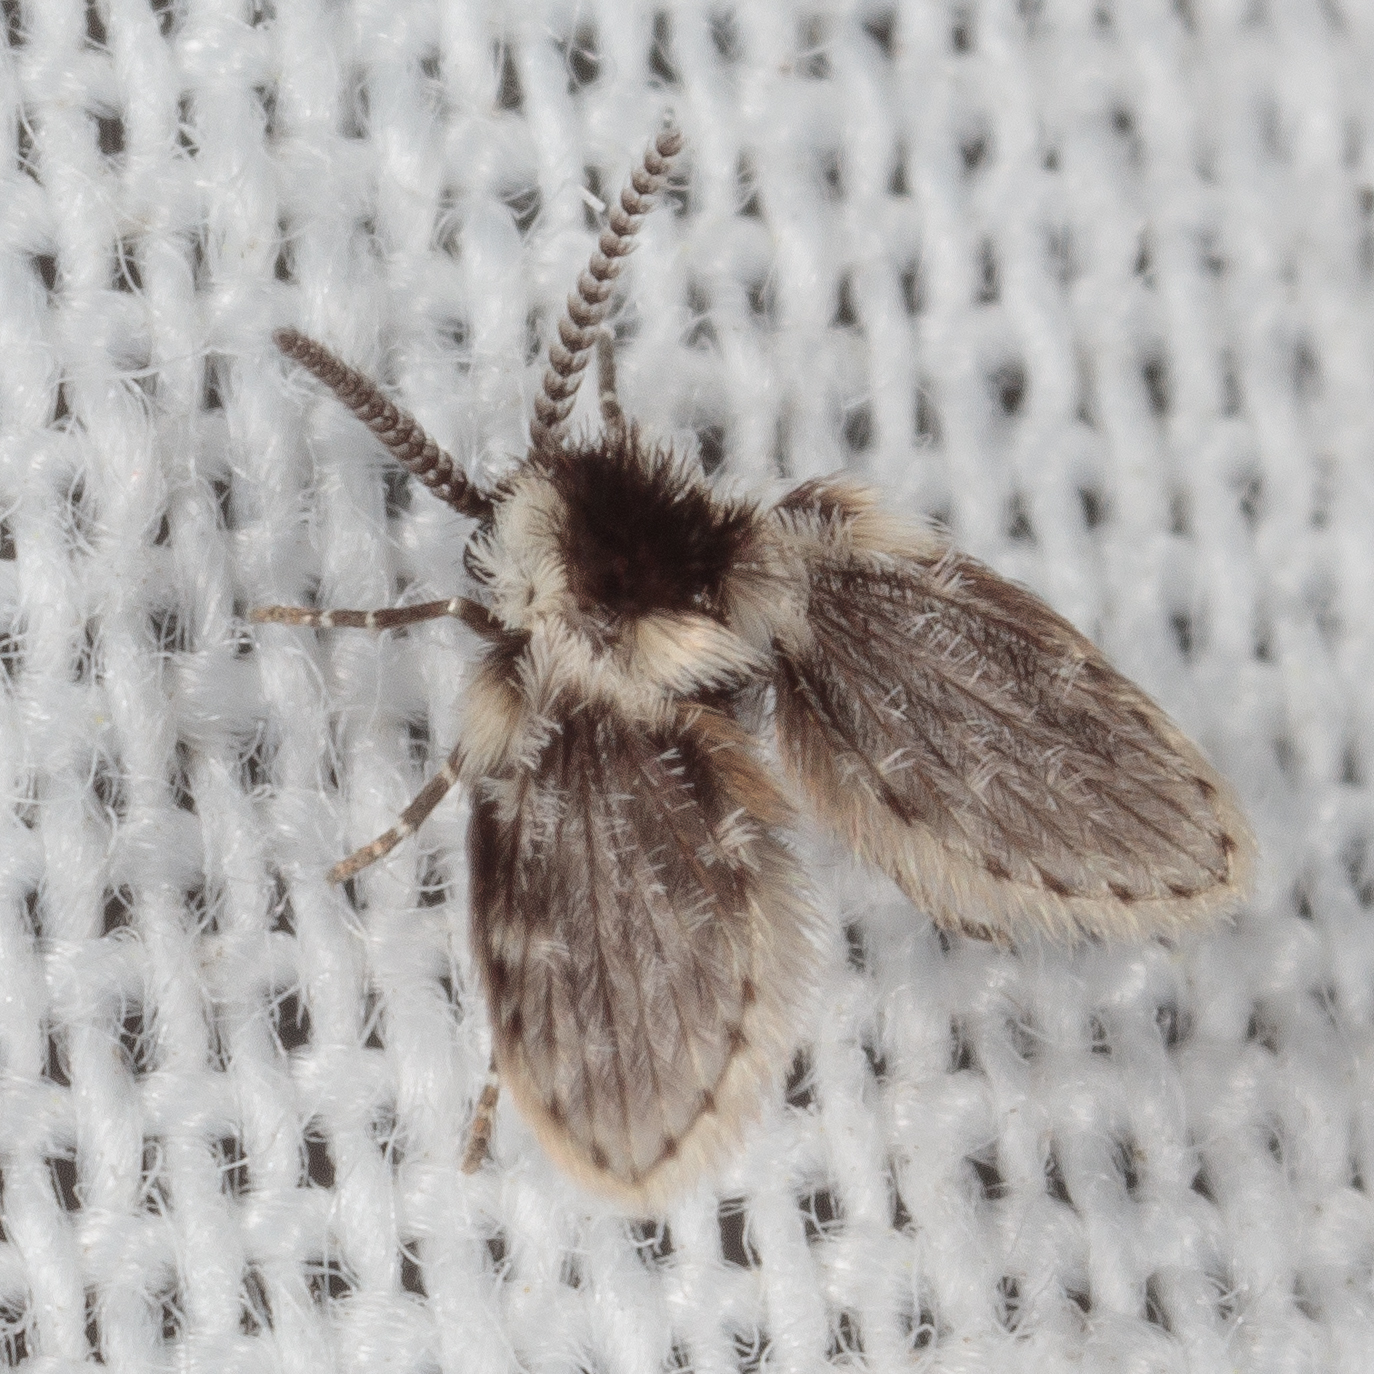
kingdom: Animalia
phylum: Arthropoda
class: Insecta
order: Diptera
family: Psychodidae
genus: Lepiseodina
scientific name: Lepiseodina
